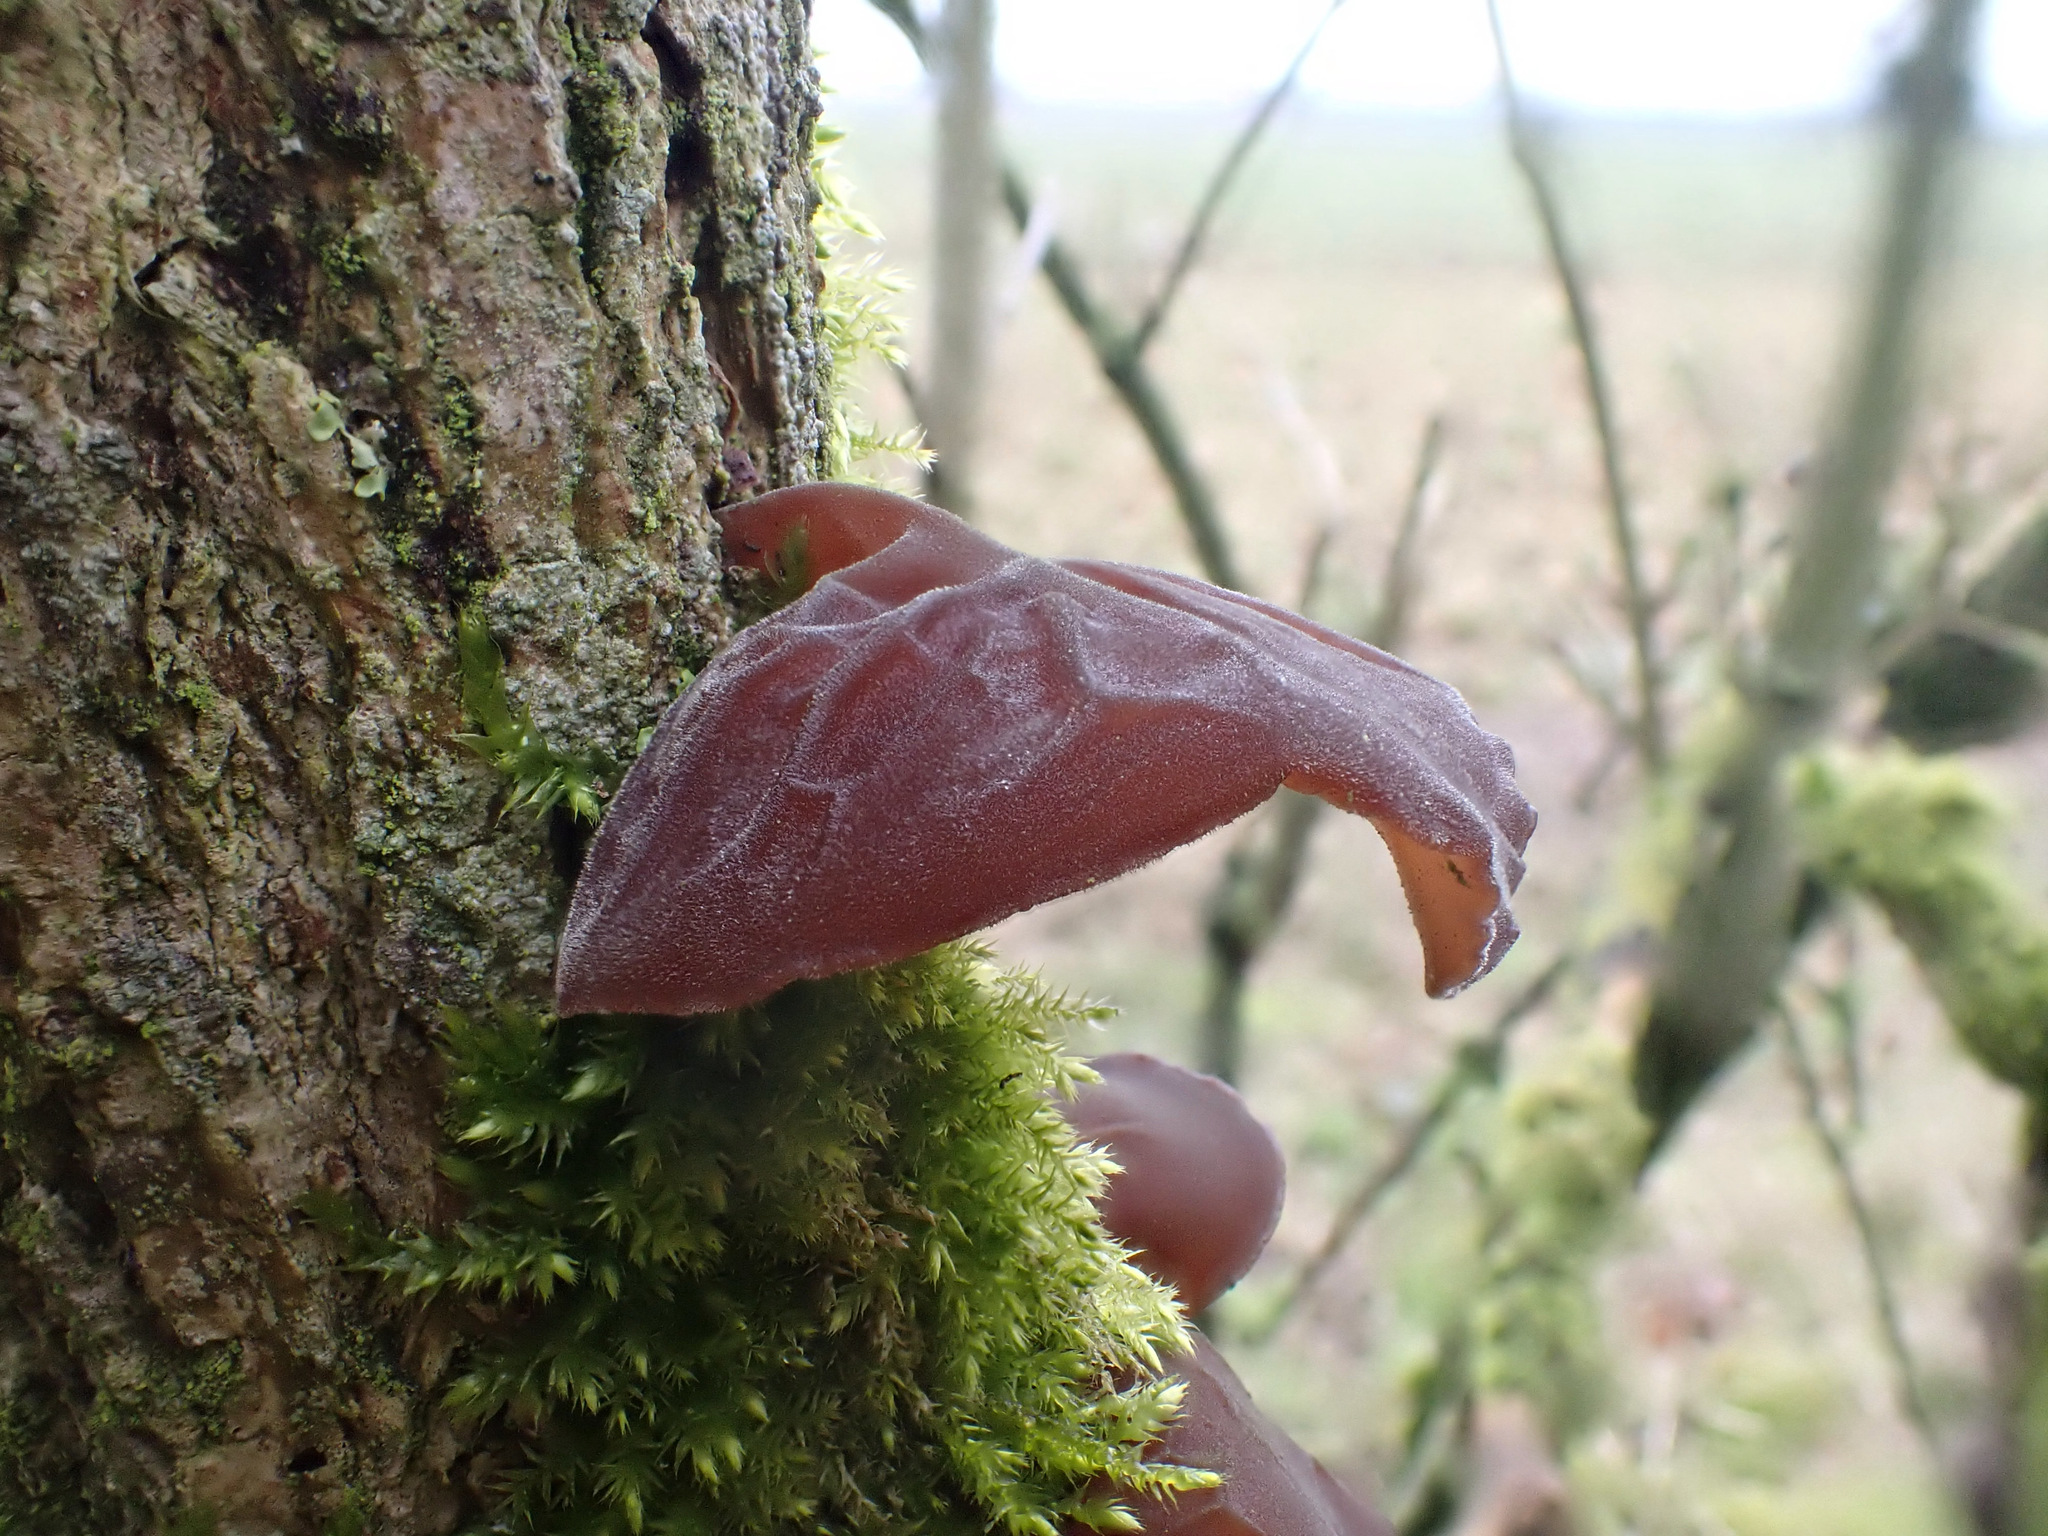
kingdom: Fungi
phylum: Basidiomycota
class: Agaricomycetes
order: Auriculariales
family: Auriculariaceae
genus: Auricularia
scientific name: Auricularia auricula-judae
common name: Jelly ear
